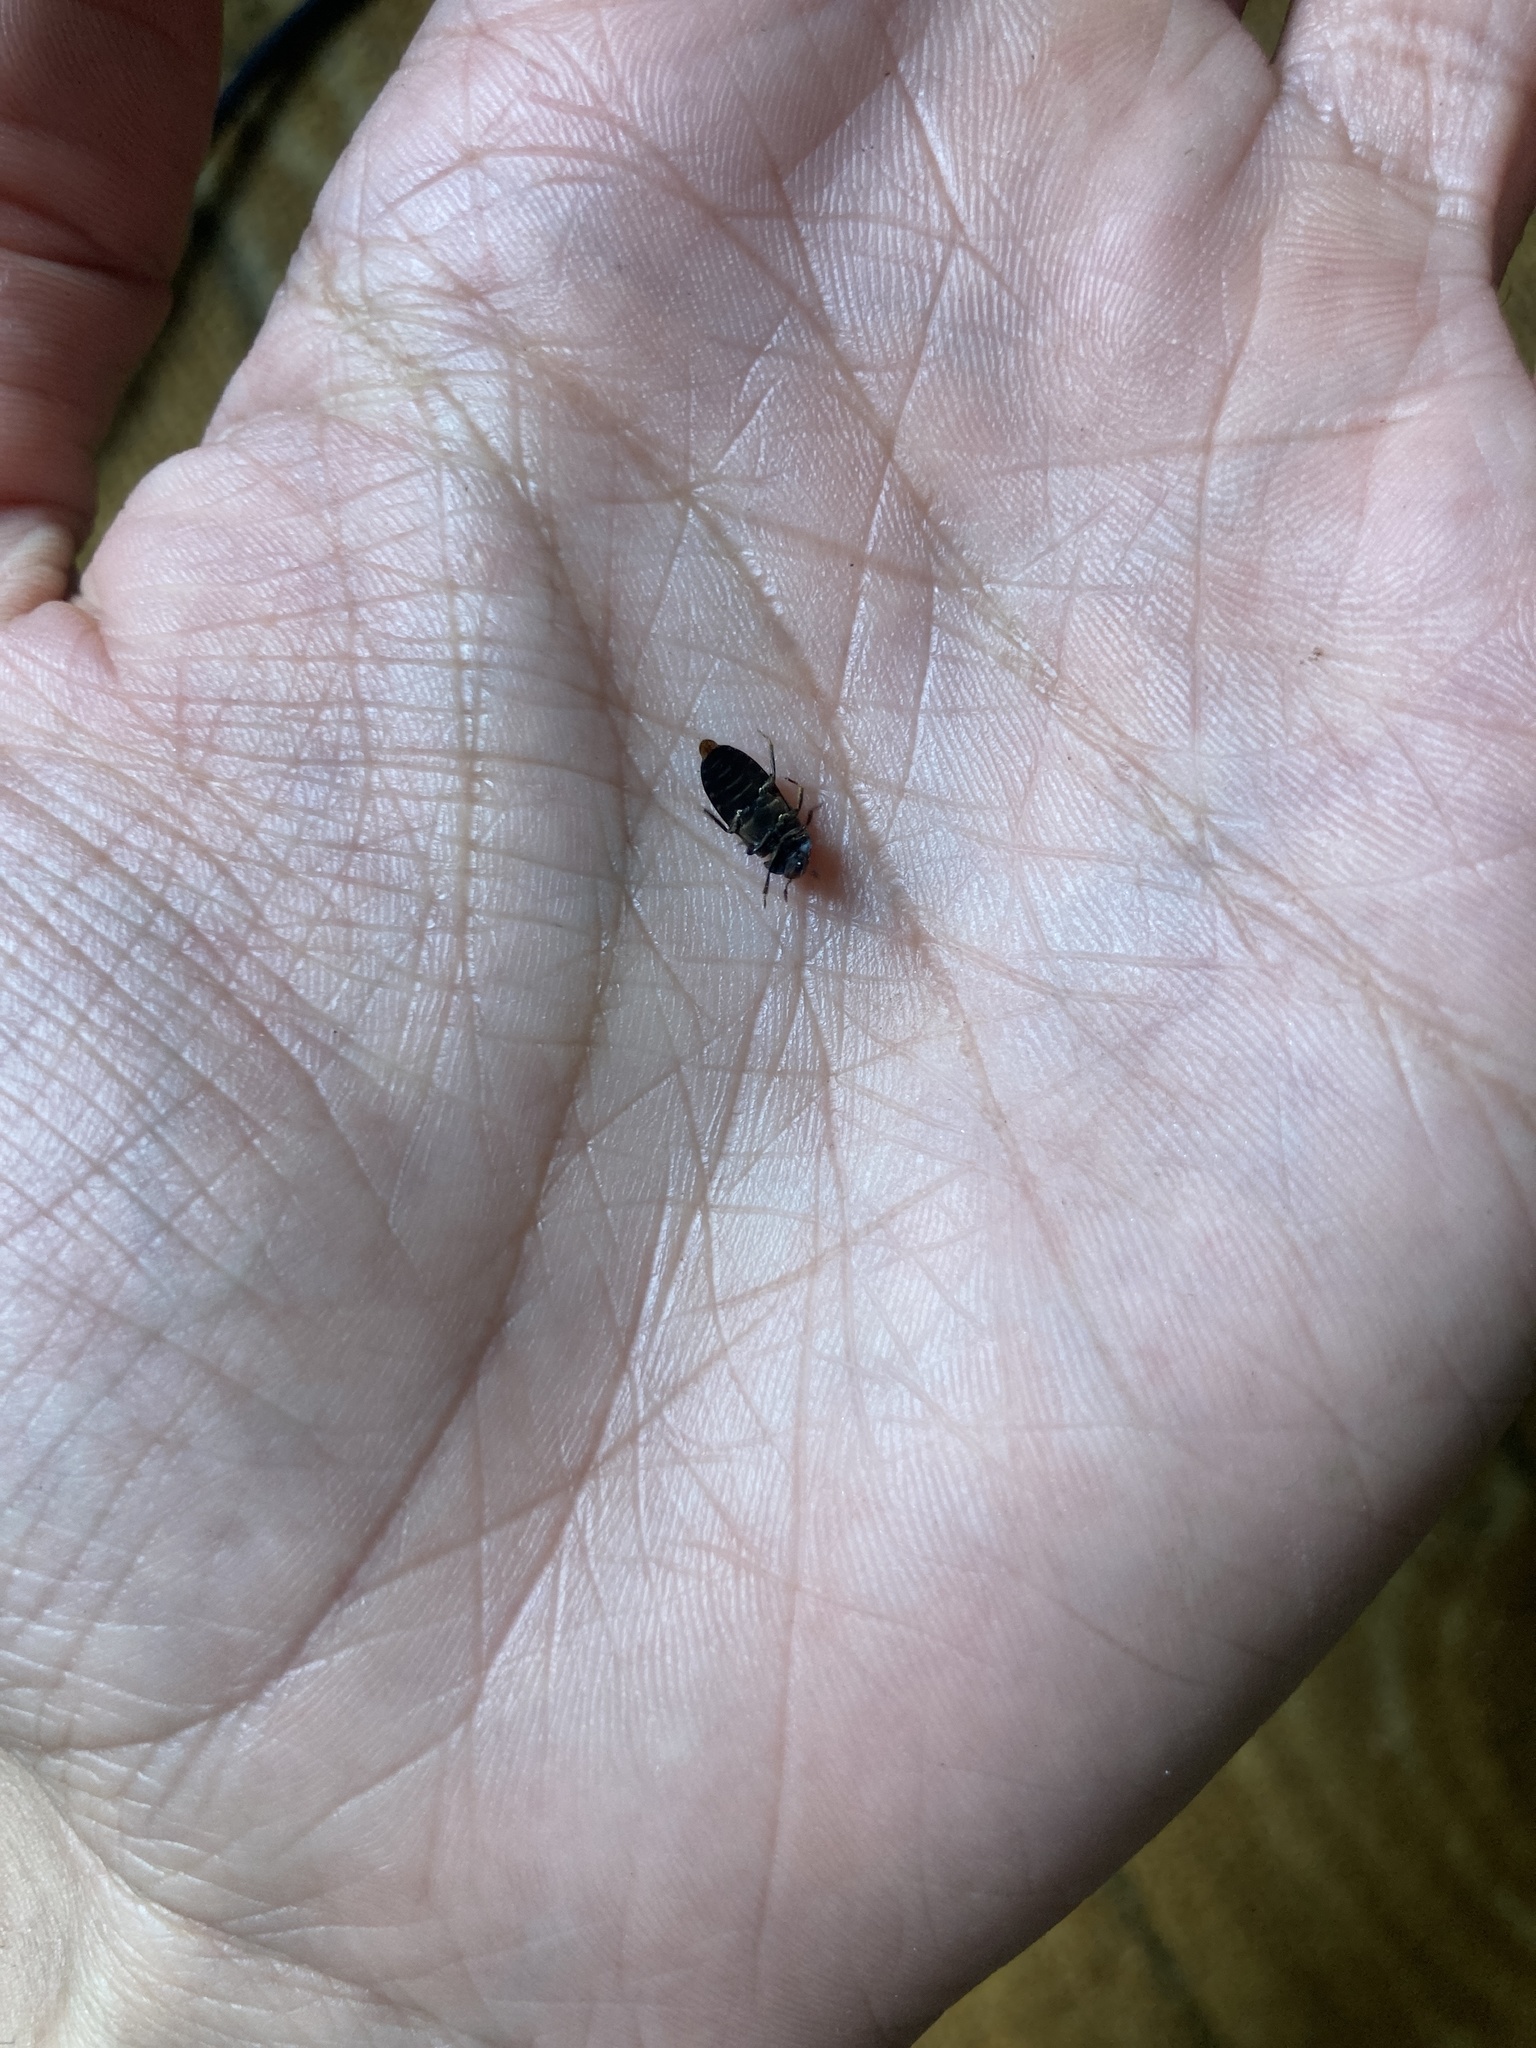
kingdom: Animalia
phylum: Arthropoda
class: Insecta
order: Coleoptera
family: Dermestidae
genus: Dermestes
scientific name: Dermestes lardarius
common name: Larder beetle
